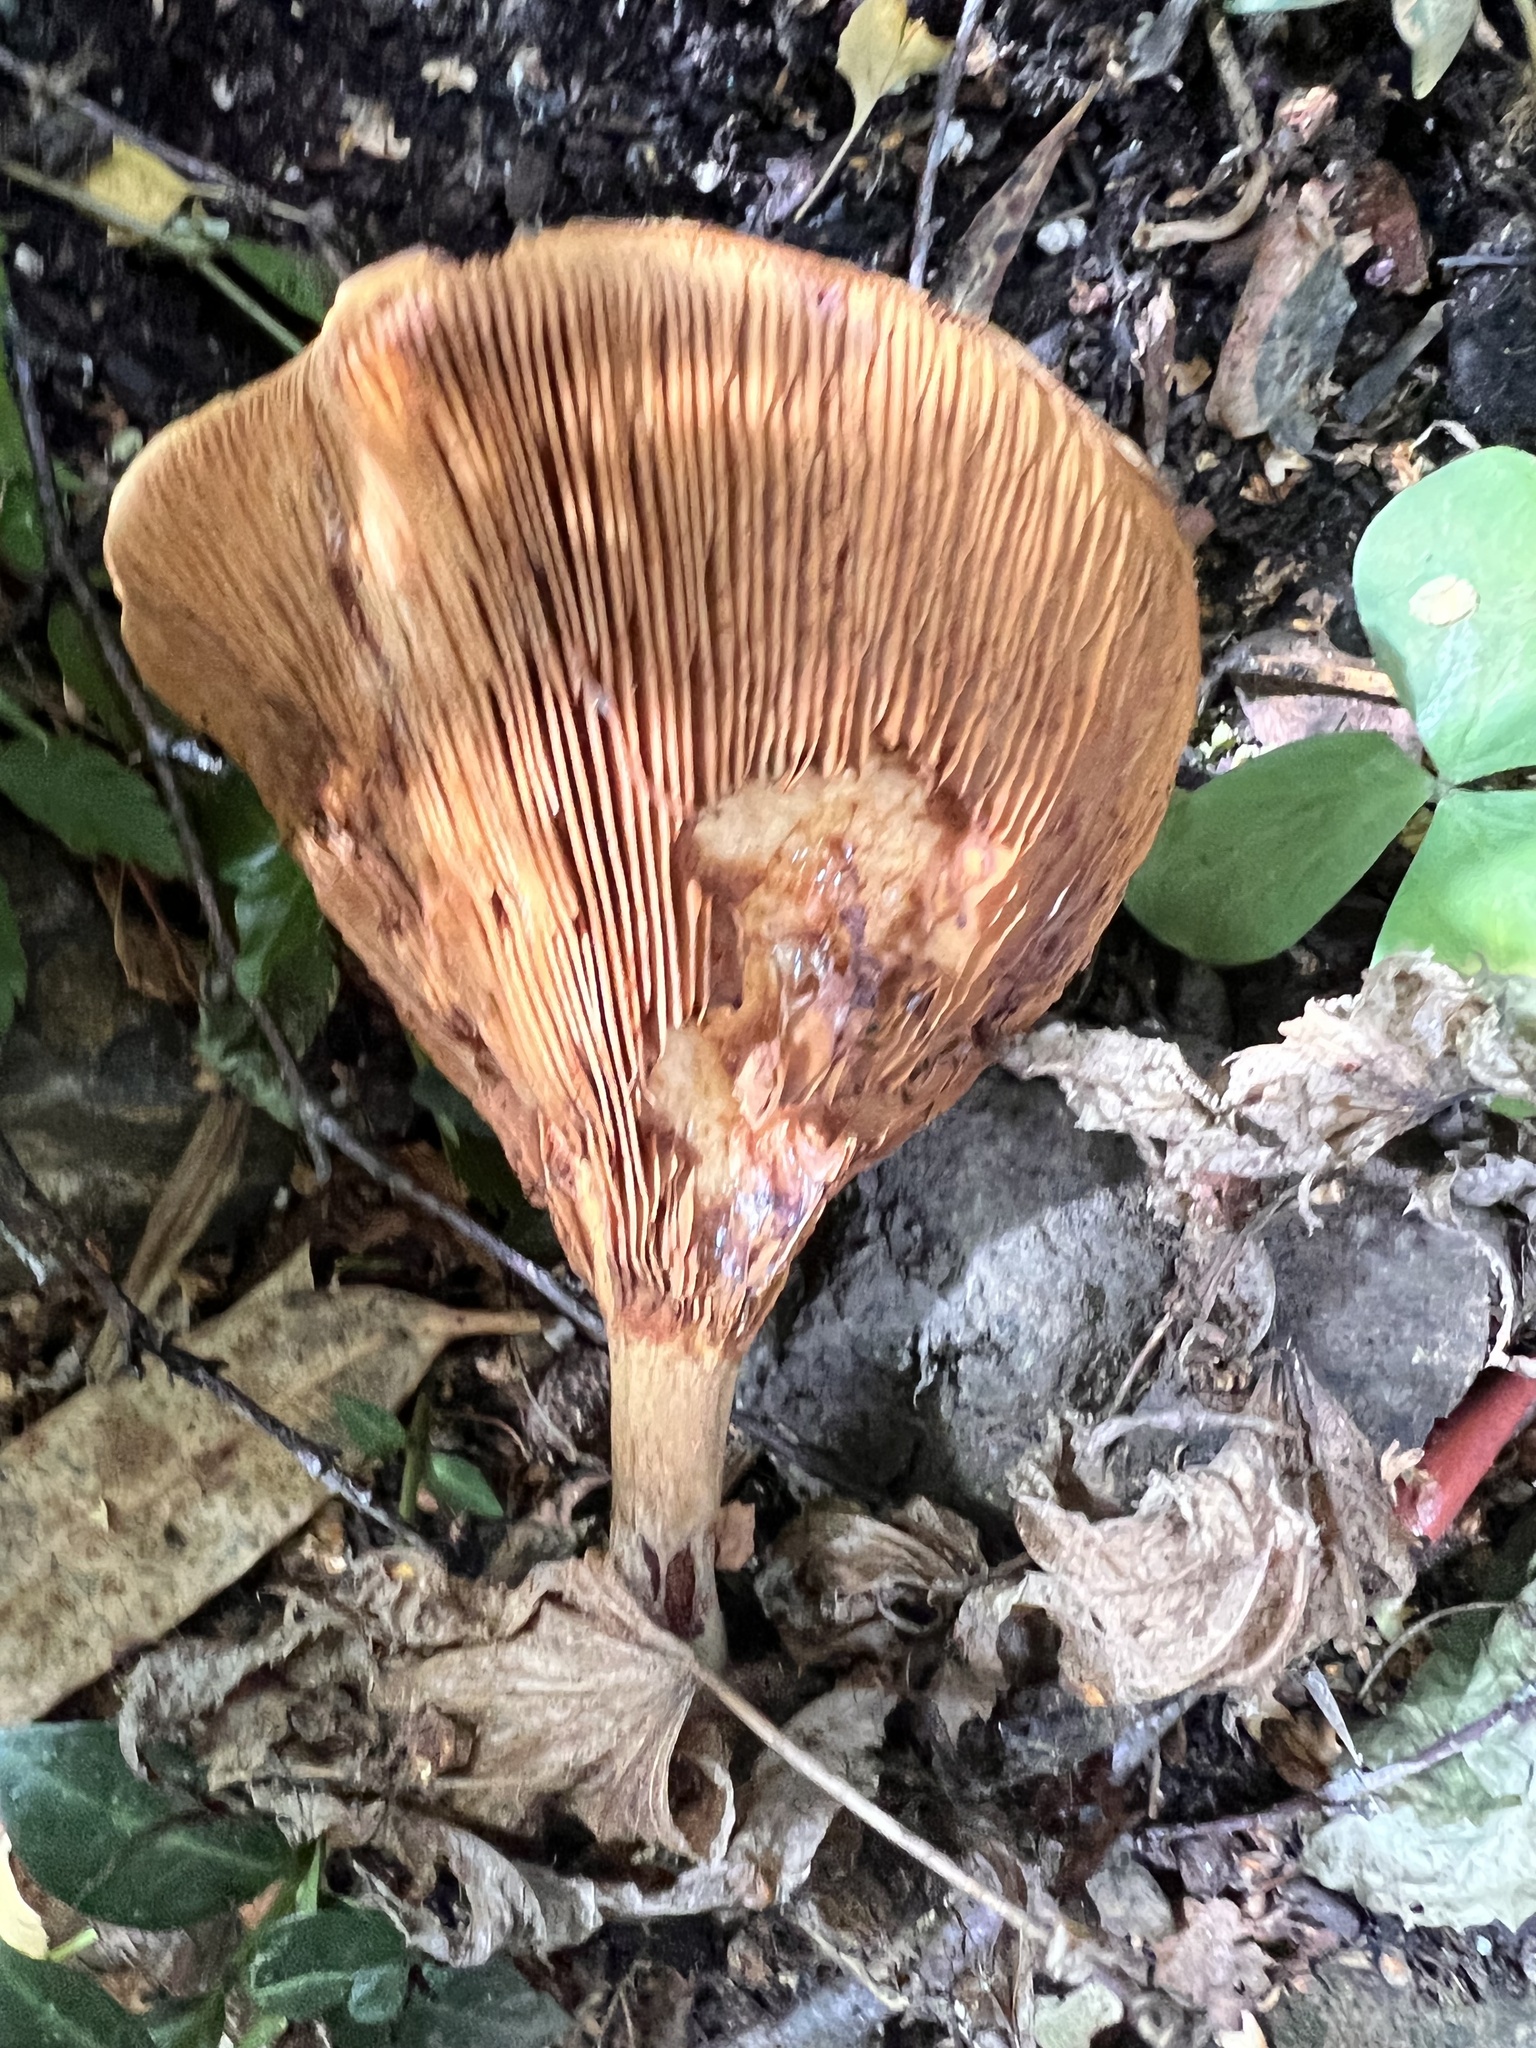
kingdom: Fungi
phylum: Basidiomycota
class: Agaricomycetes
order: Boletales
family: Paxillaceae
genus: Paxillus
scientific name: Paxillus cuprinus
